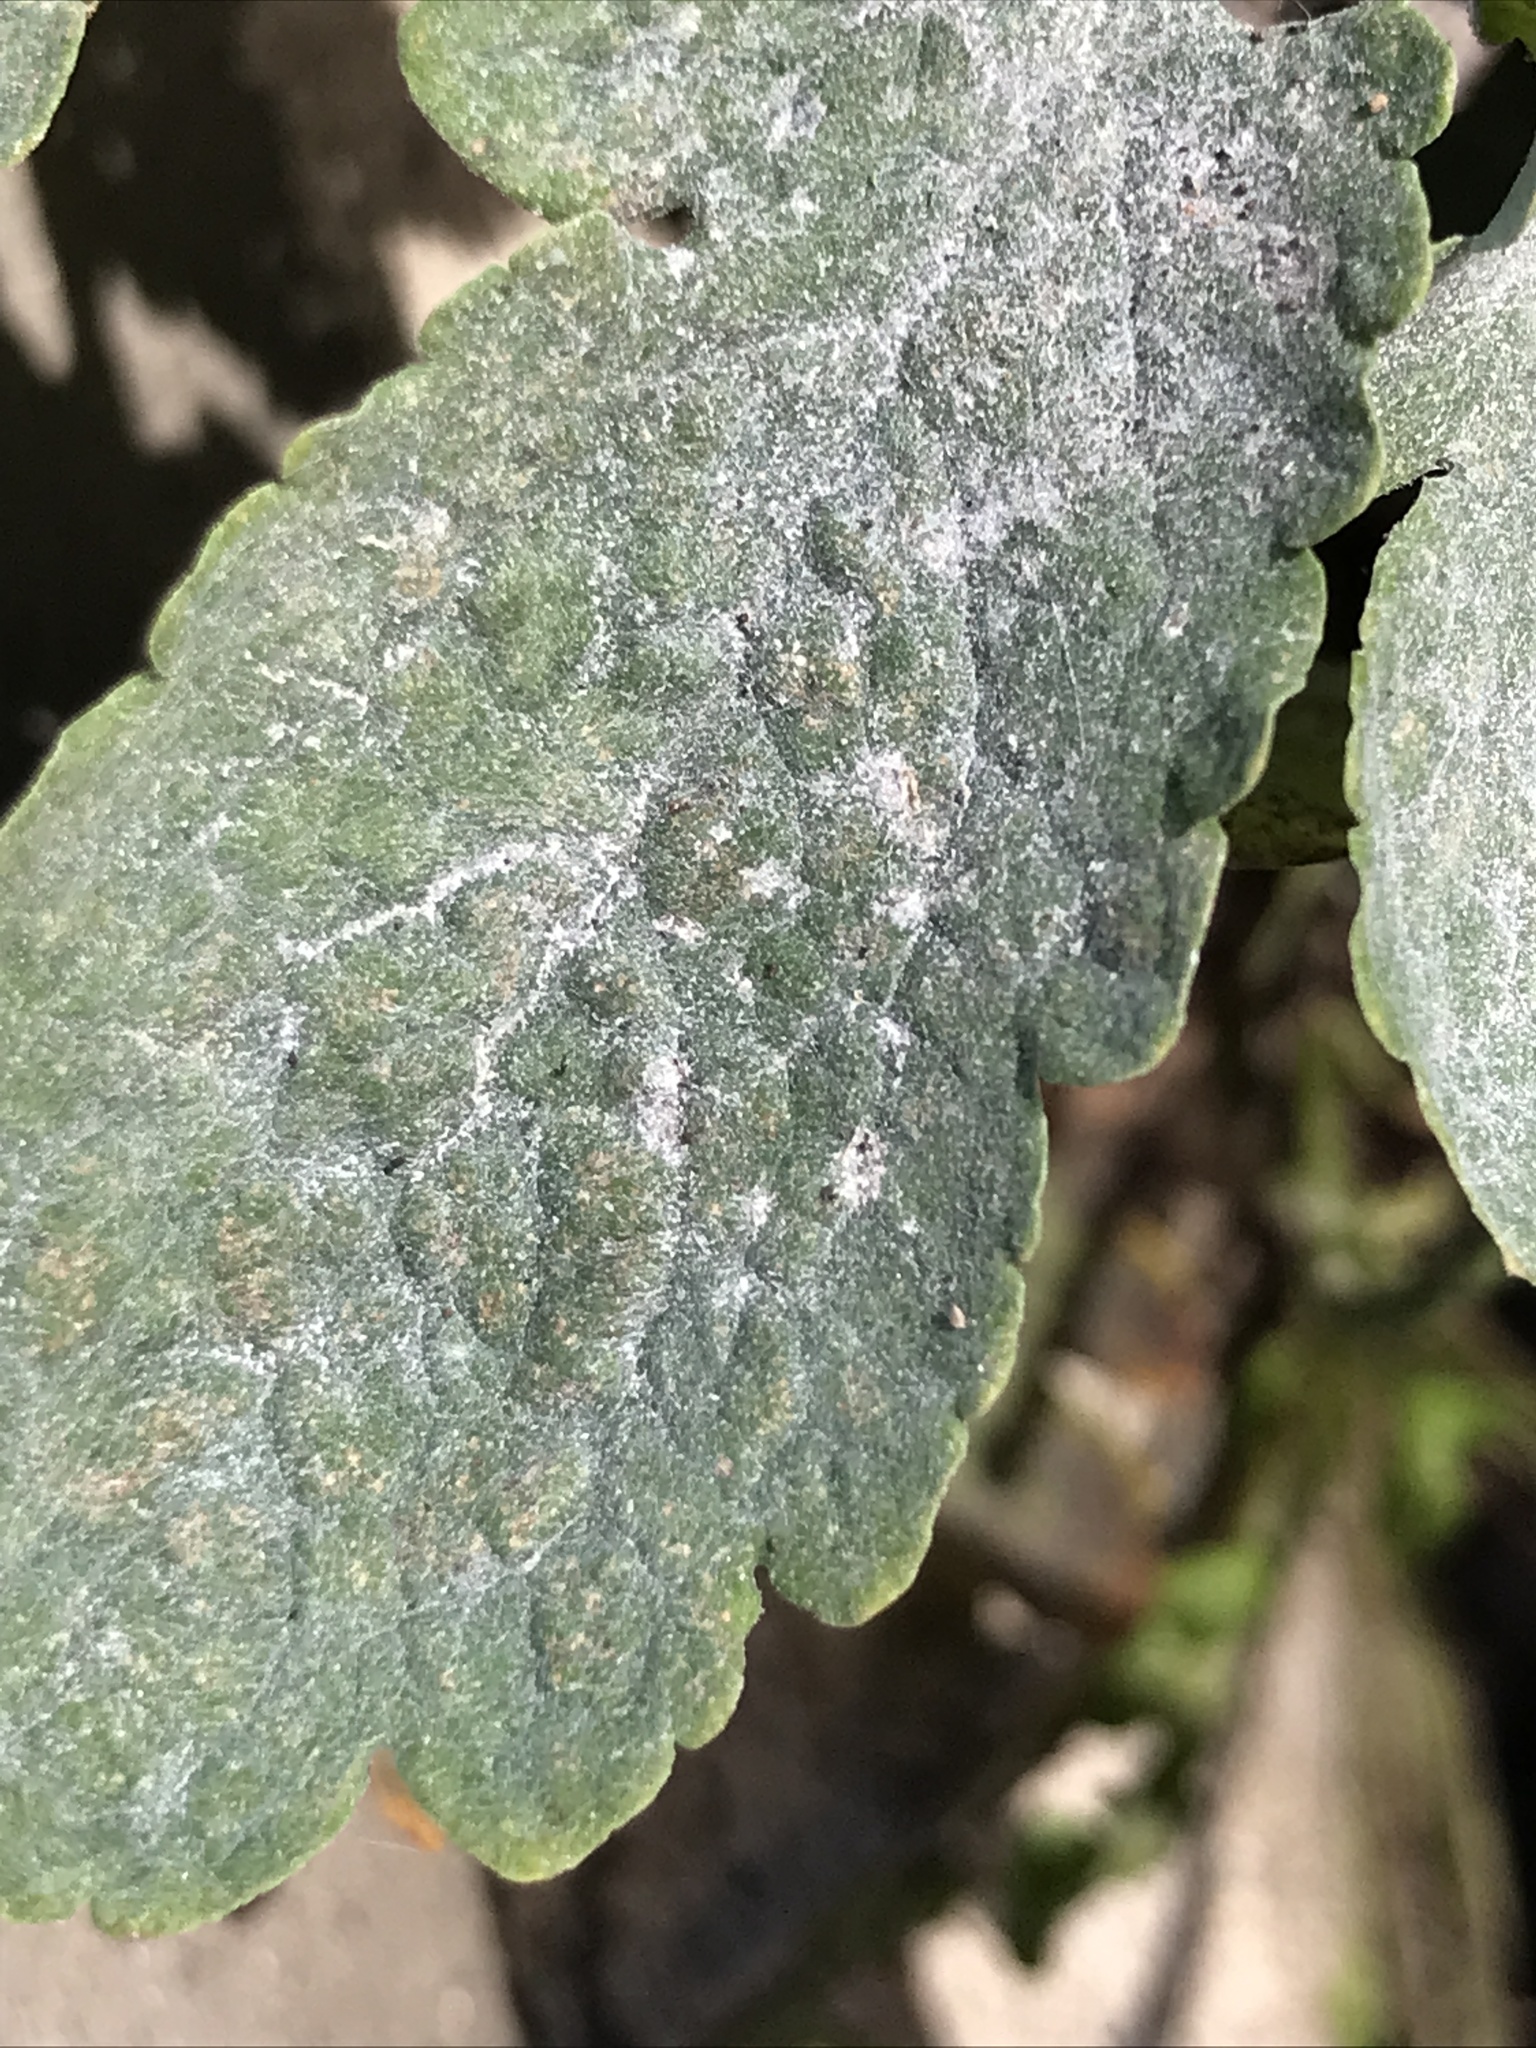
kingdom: Fungi
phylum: Ascomycota
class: Leotiomycetes
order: Helotiales
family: Erysiphaceae
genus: Erysiphe
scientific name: Erysiphe macleayae
